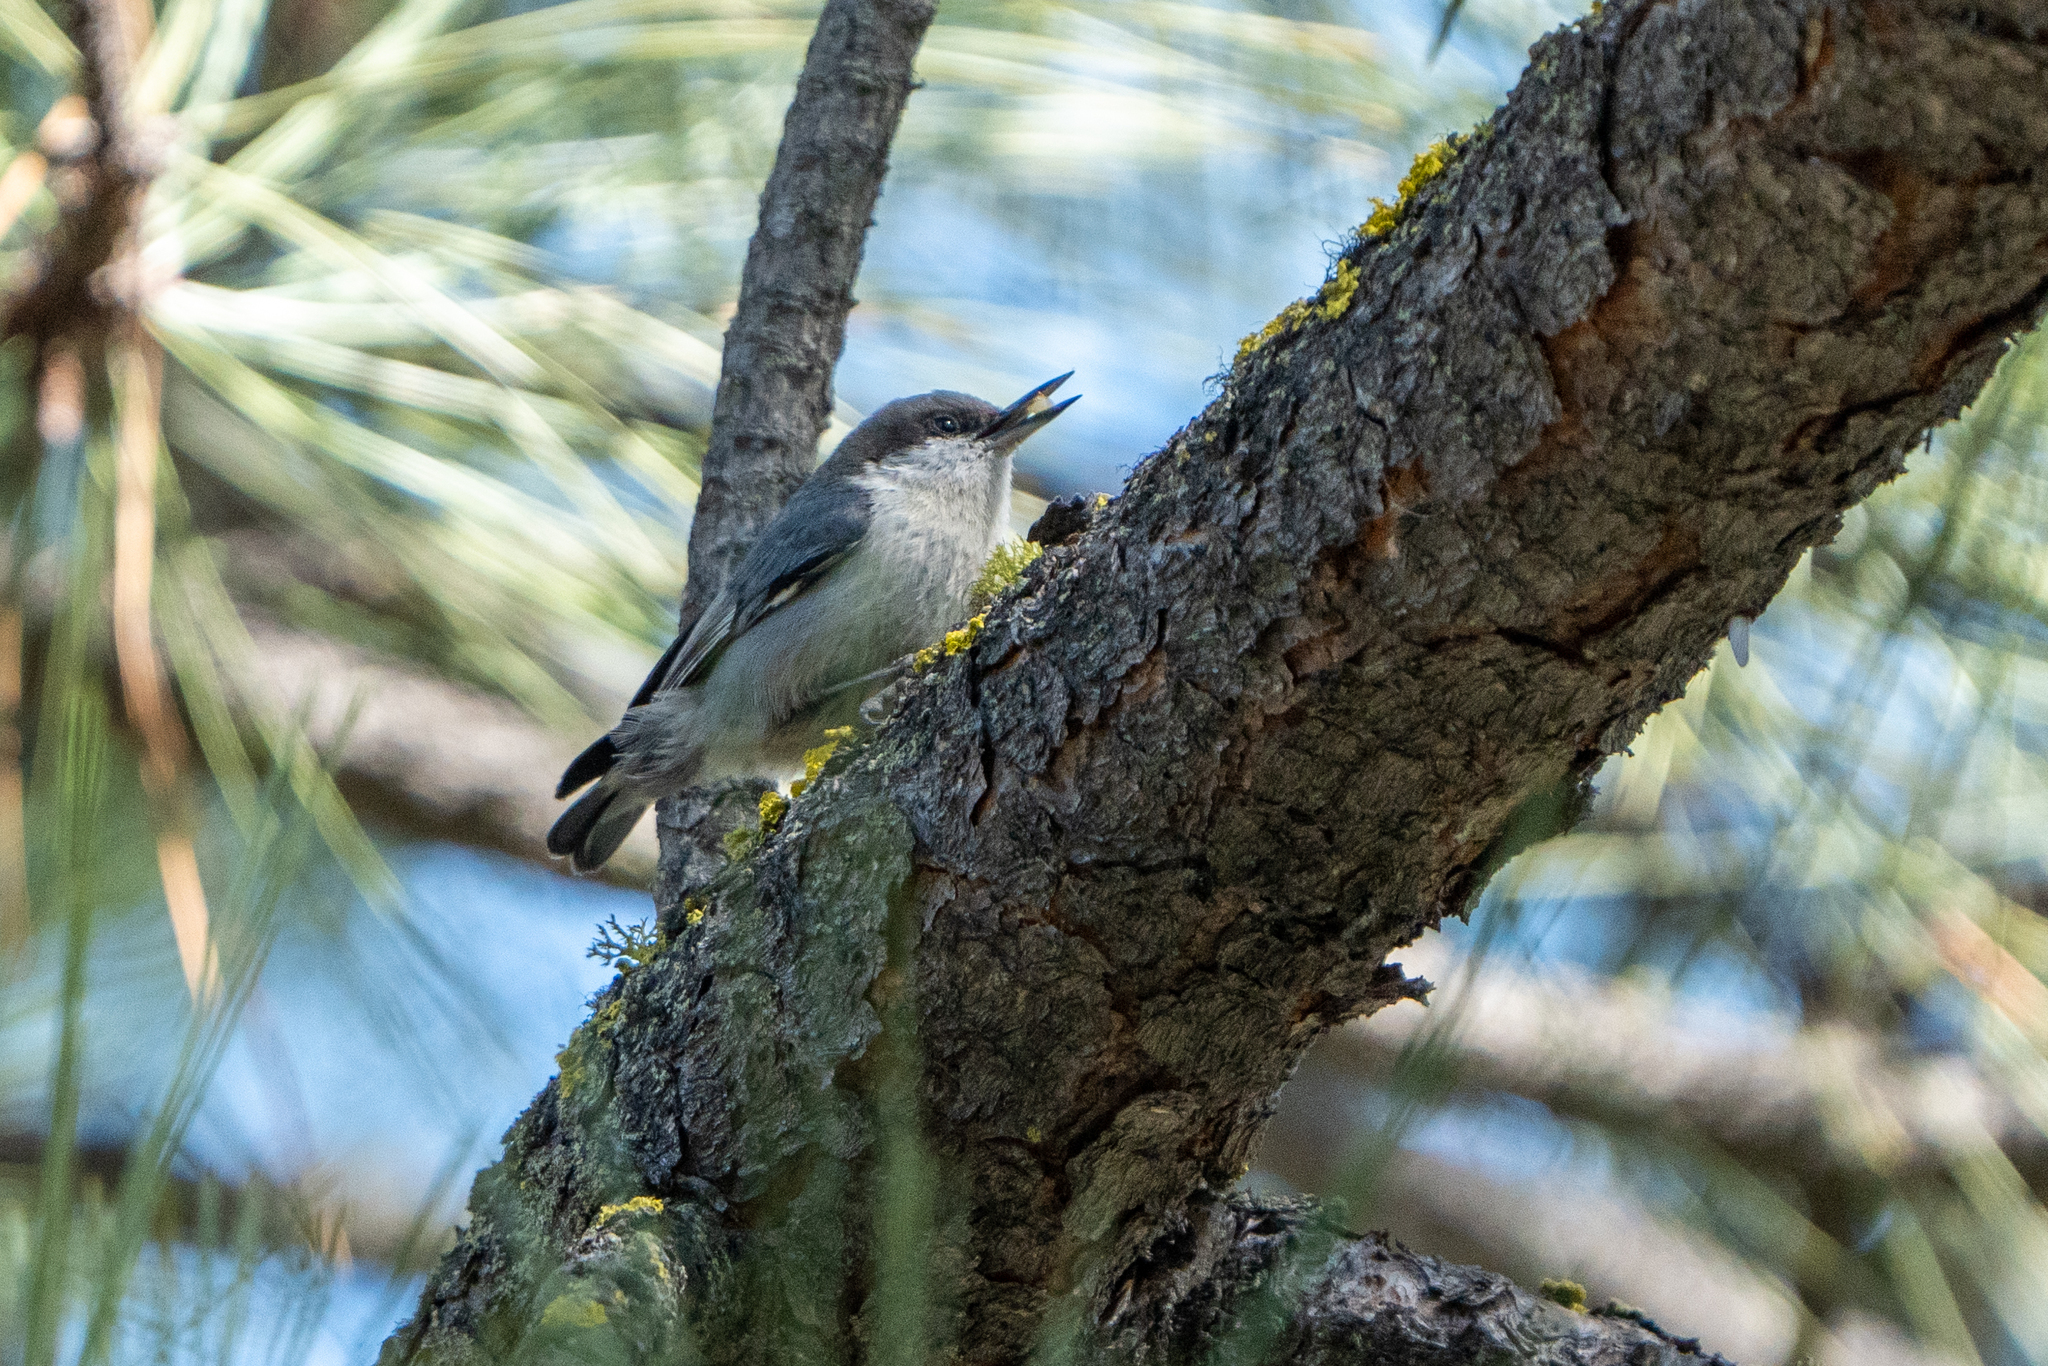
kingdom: Animalia
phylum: Chordata
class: Aves
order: Passeriformes
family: Sittidae
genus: Sitta
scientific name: Sitta pygmaea
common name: Pygmy nuthatch
